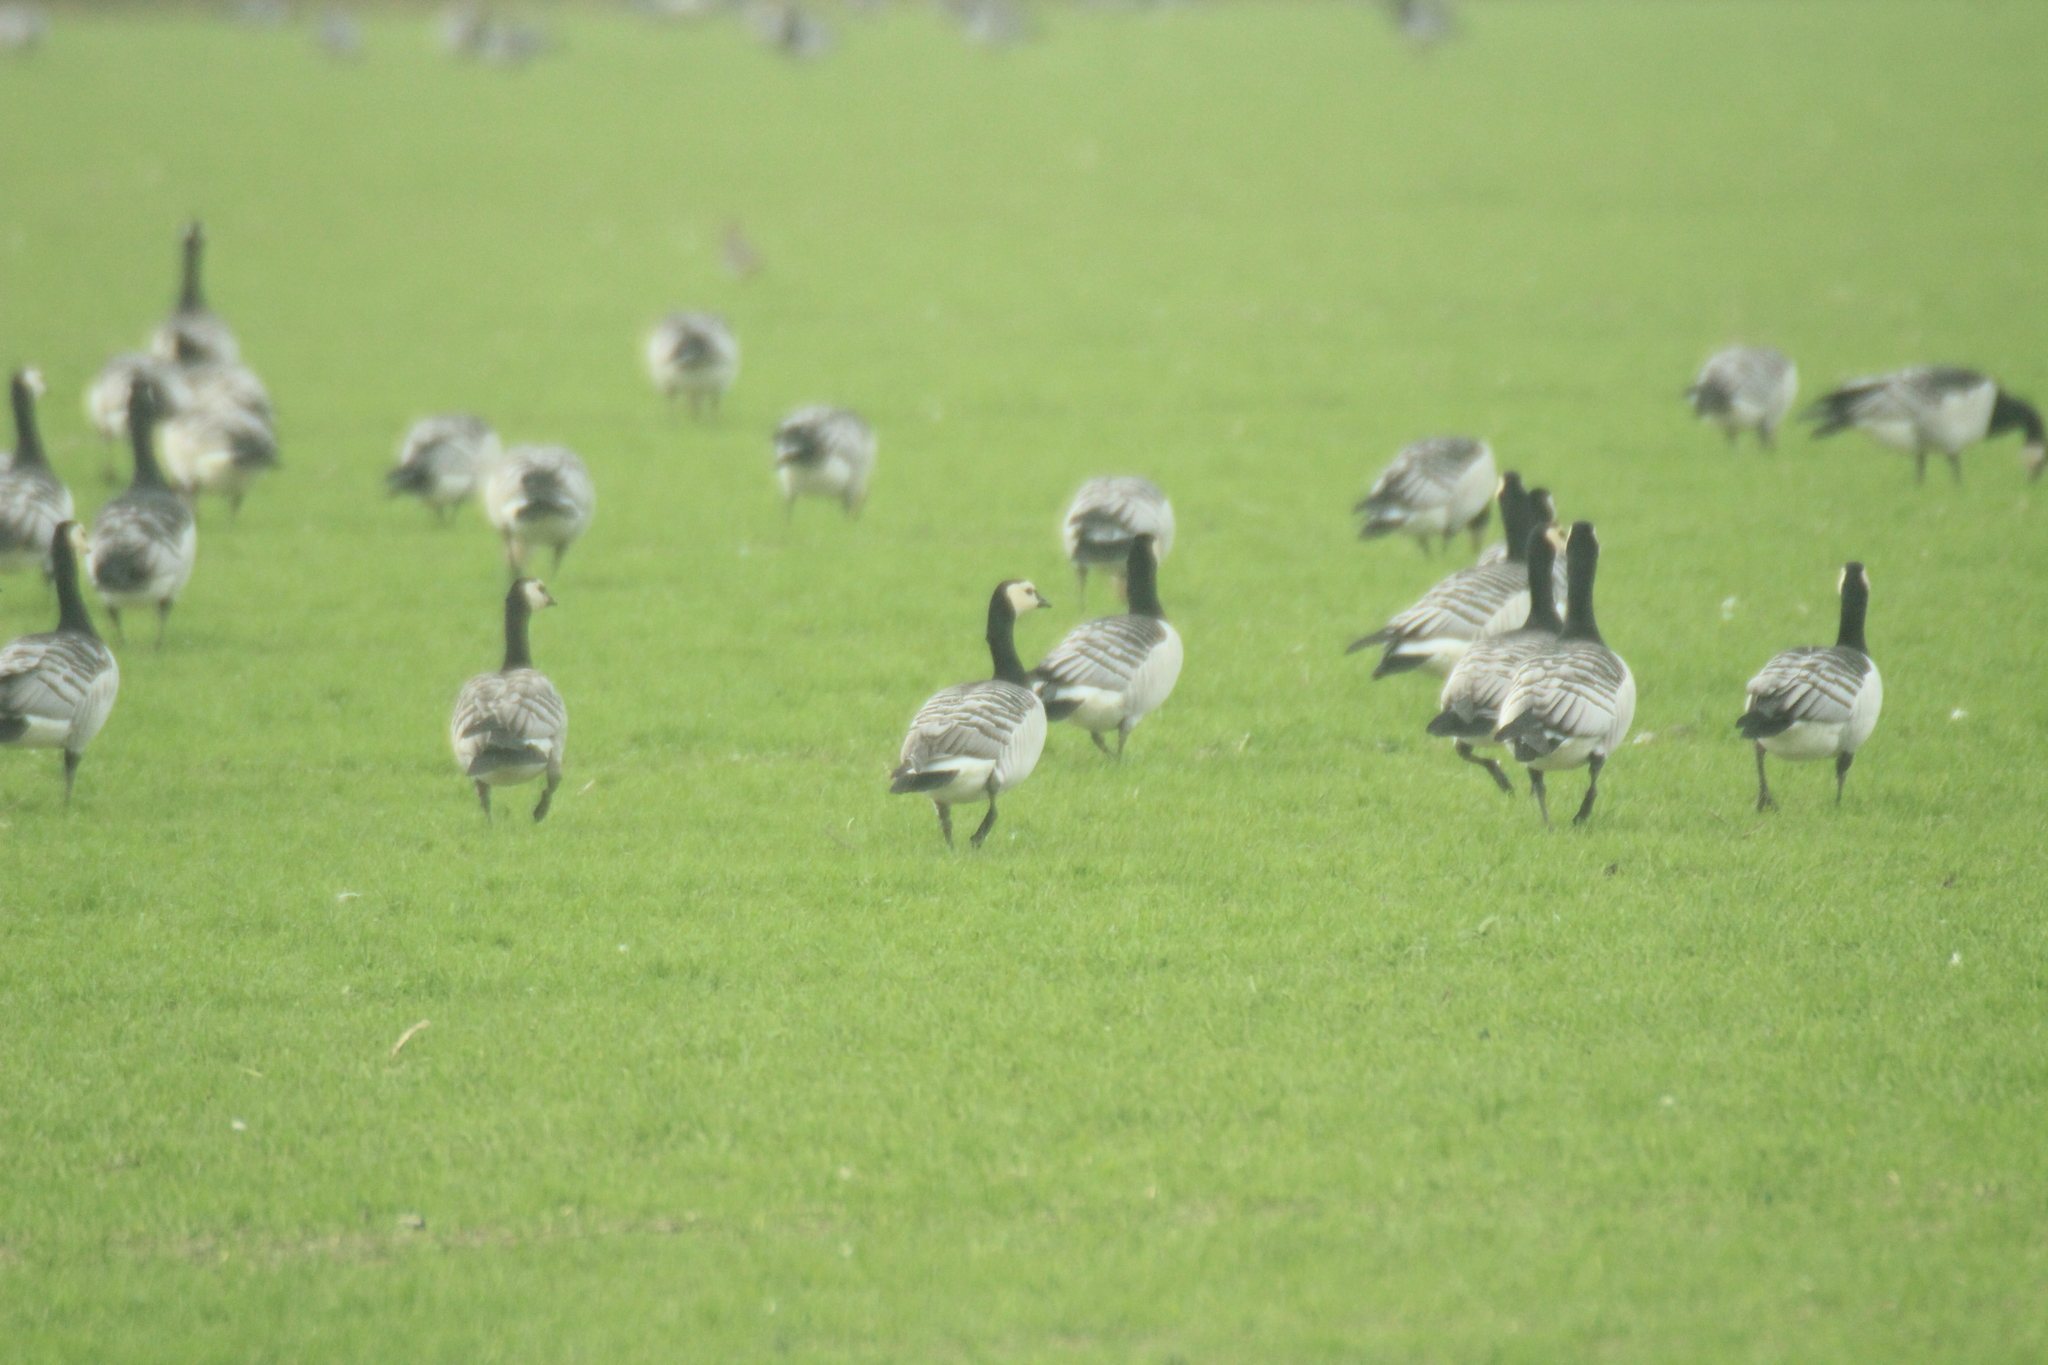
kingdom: Animalia
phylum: Chordata
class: Aves
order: Anseriformes
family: Anatidae
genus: Branta
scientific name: Branta leucopsis
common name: Barnacle goose
